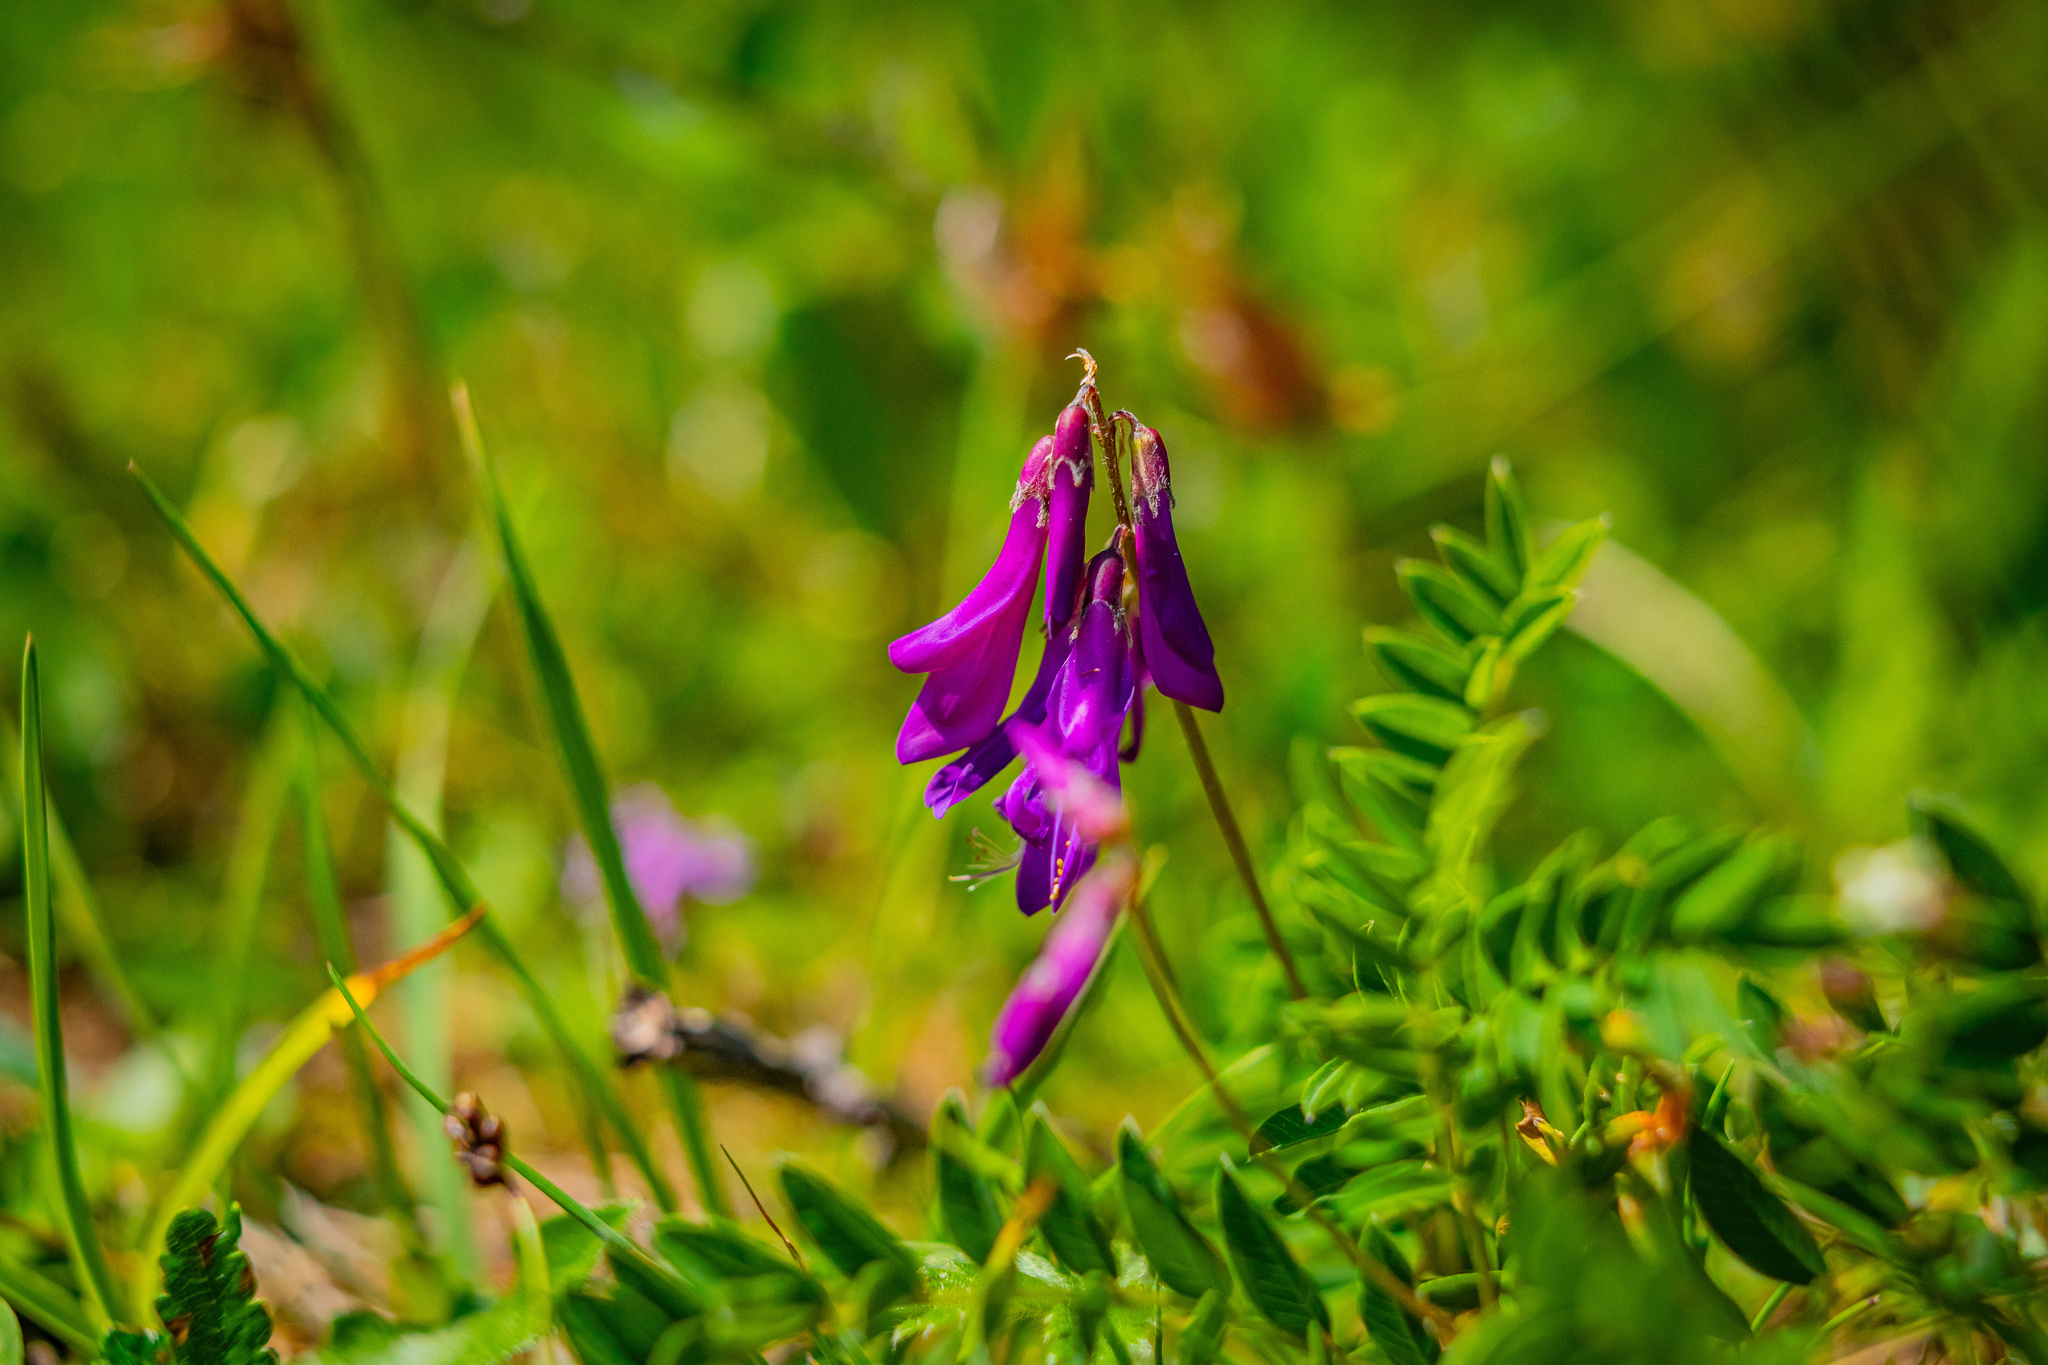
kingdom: Plantae
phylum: Tracheophyta
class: Magnoliopsida
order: Fabales
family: Fabaceae
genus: Hedysarum
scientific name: Hedysarum hedysaroides
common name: Alpine french-honeysuckle
